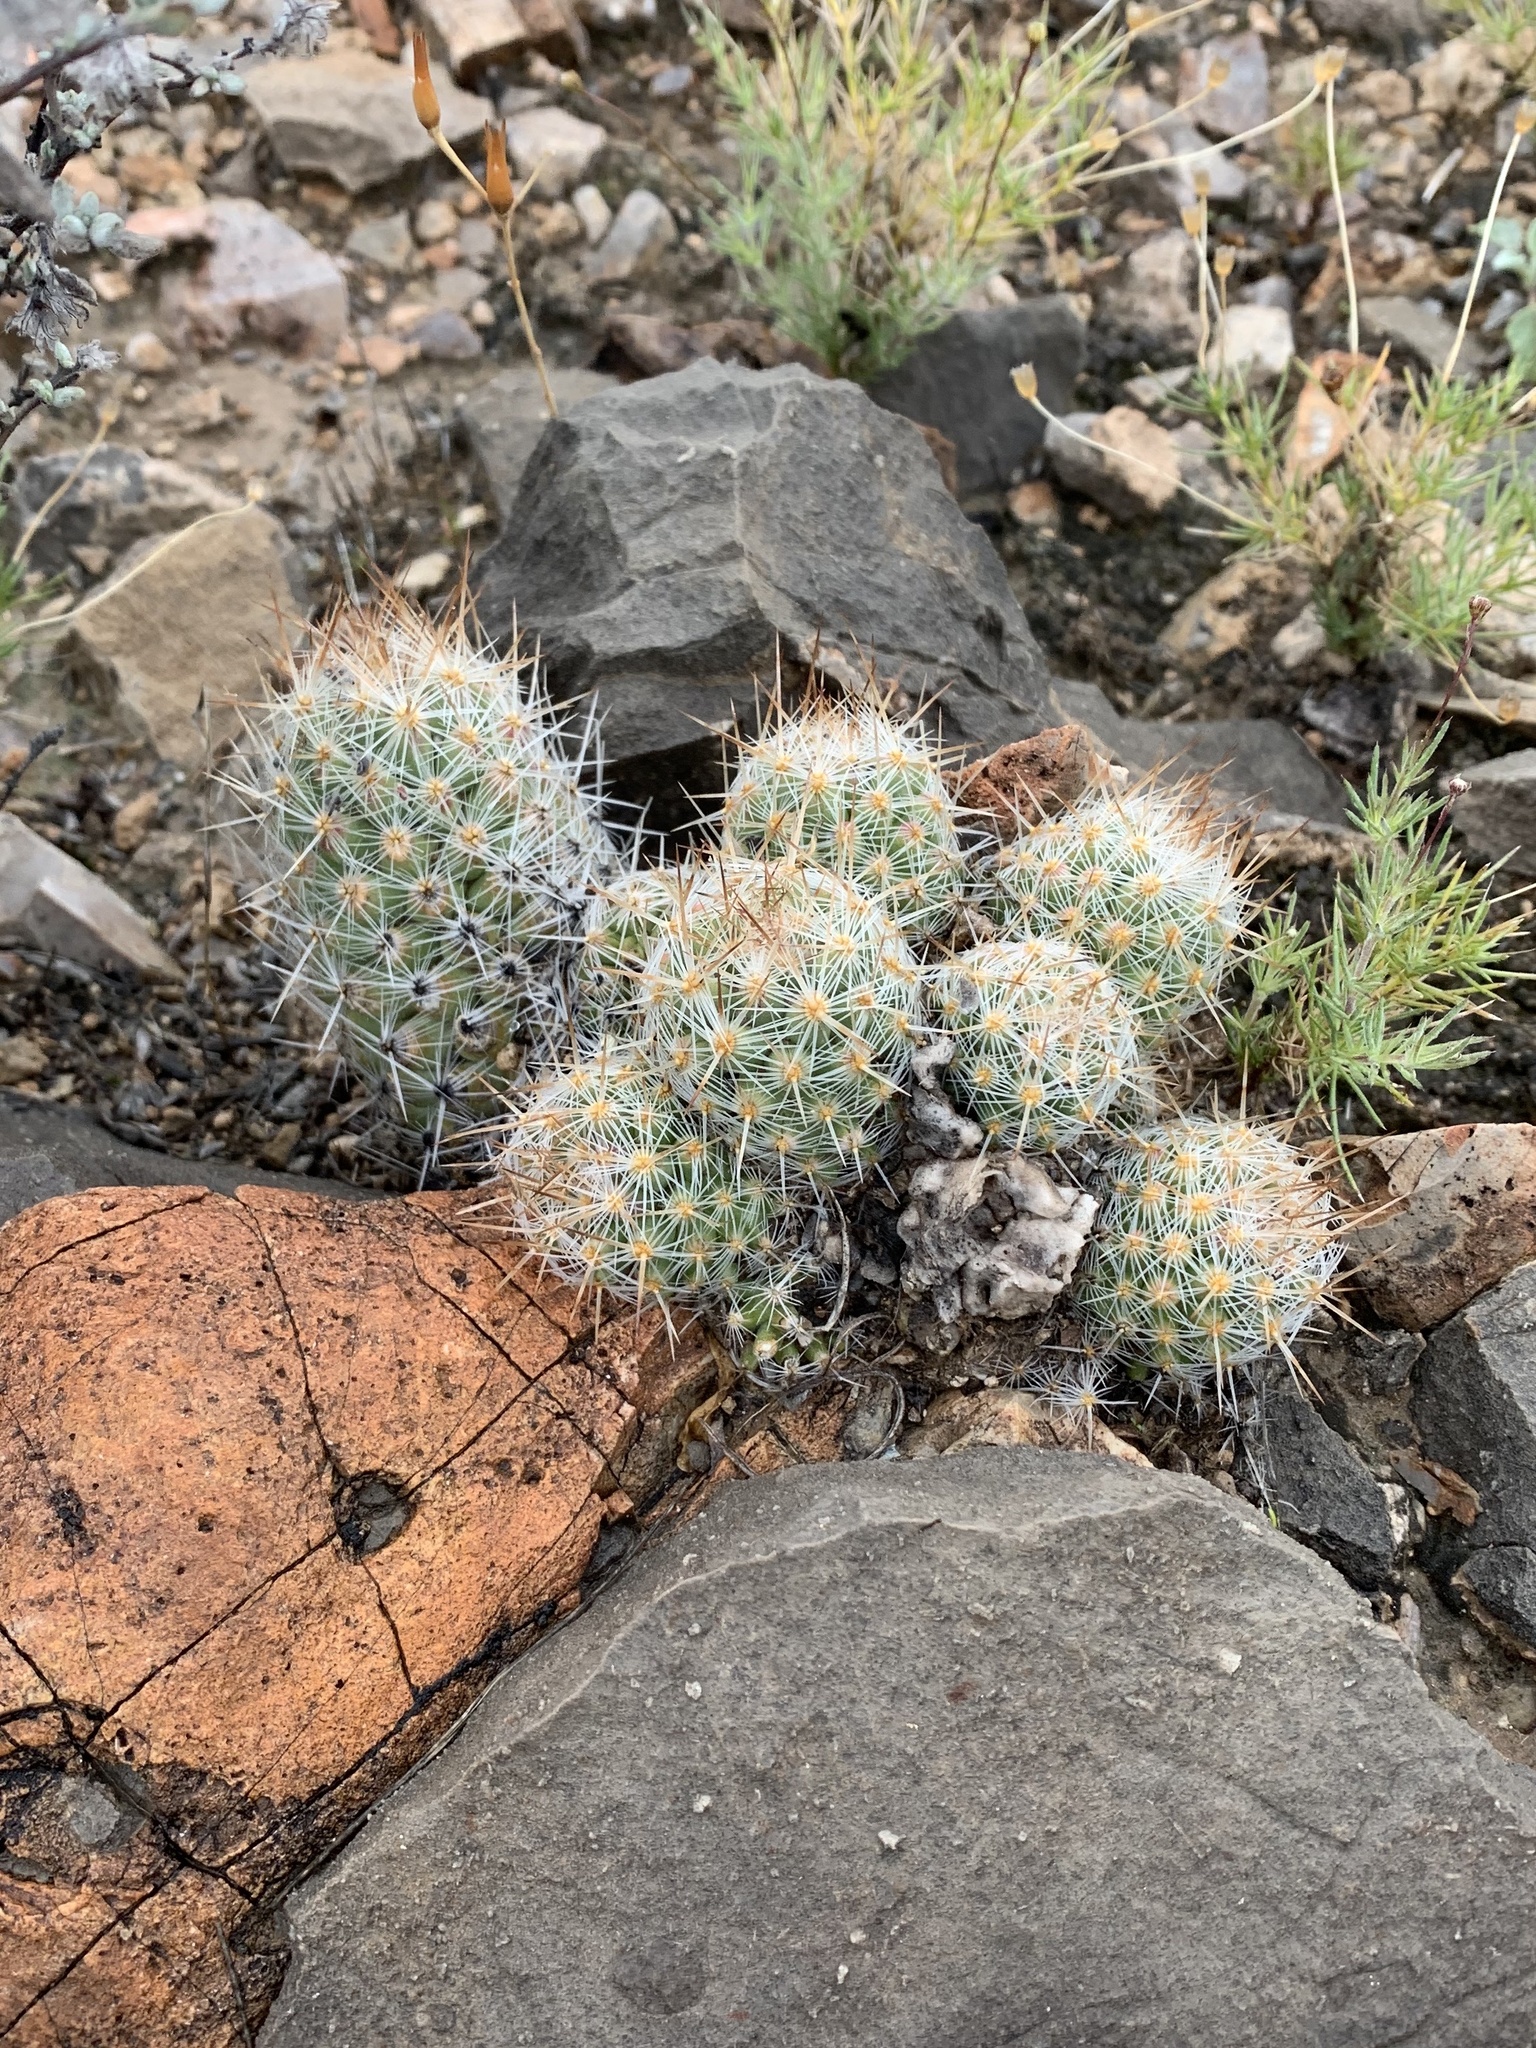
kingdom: Plantae
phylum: Tracheophyta
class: Magnoliopsida
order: Caryophyllales
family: Cactaceae
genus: Pelecyphora
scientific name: Pelecyphora tuberculosa
